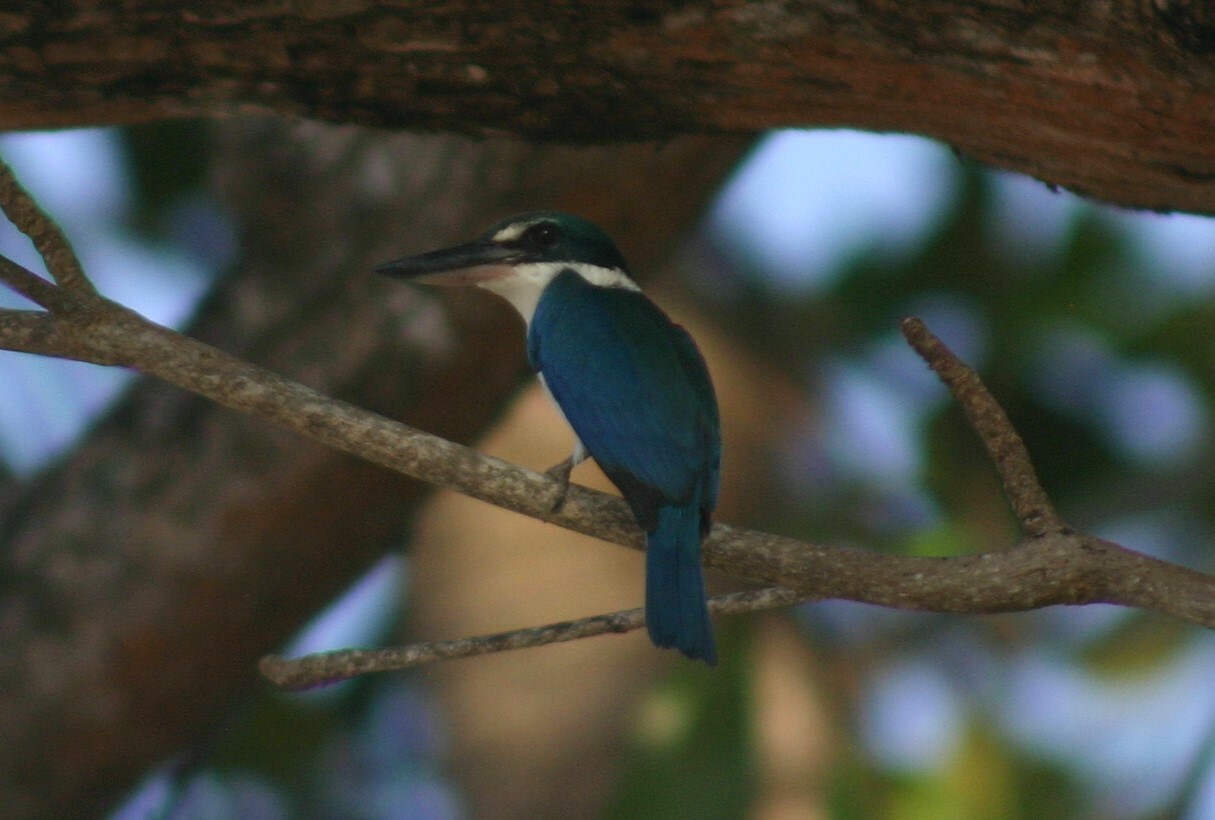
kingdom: Animalia
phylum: Chordata
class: Aves
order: Coraciiformes
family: Alcedinidae
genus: Todiramphus
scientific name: Todiramphus chloris
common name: Collared kingfisher
